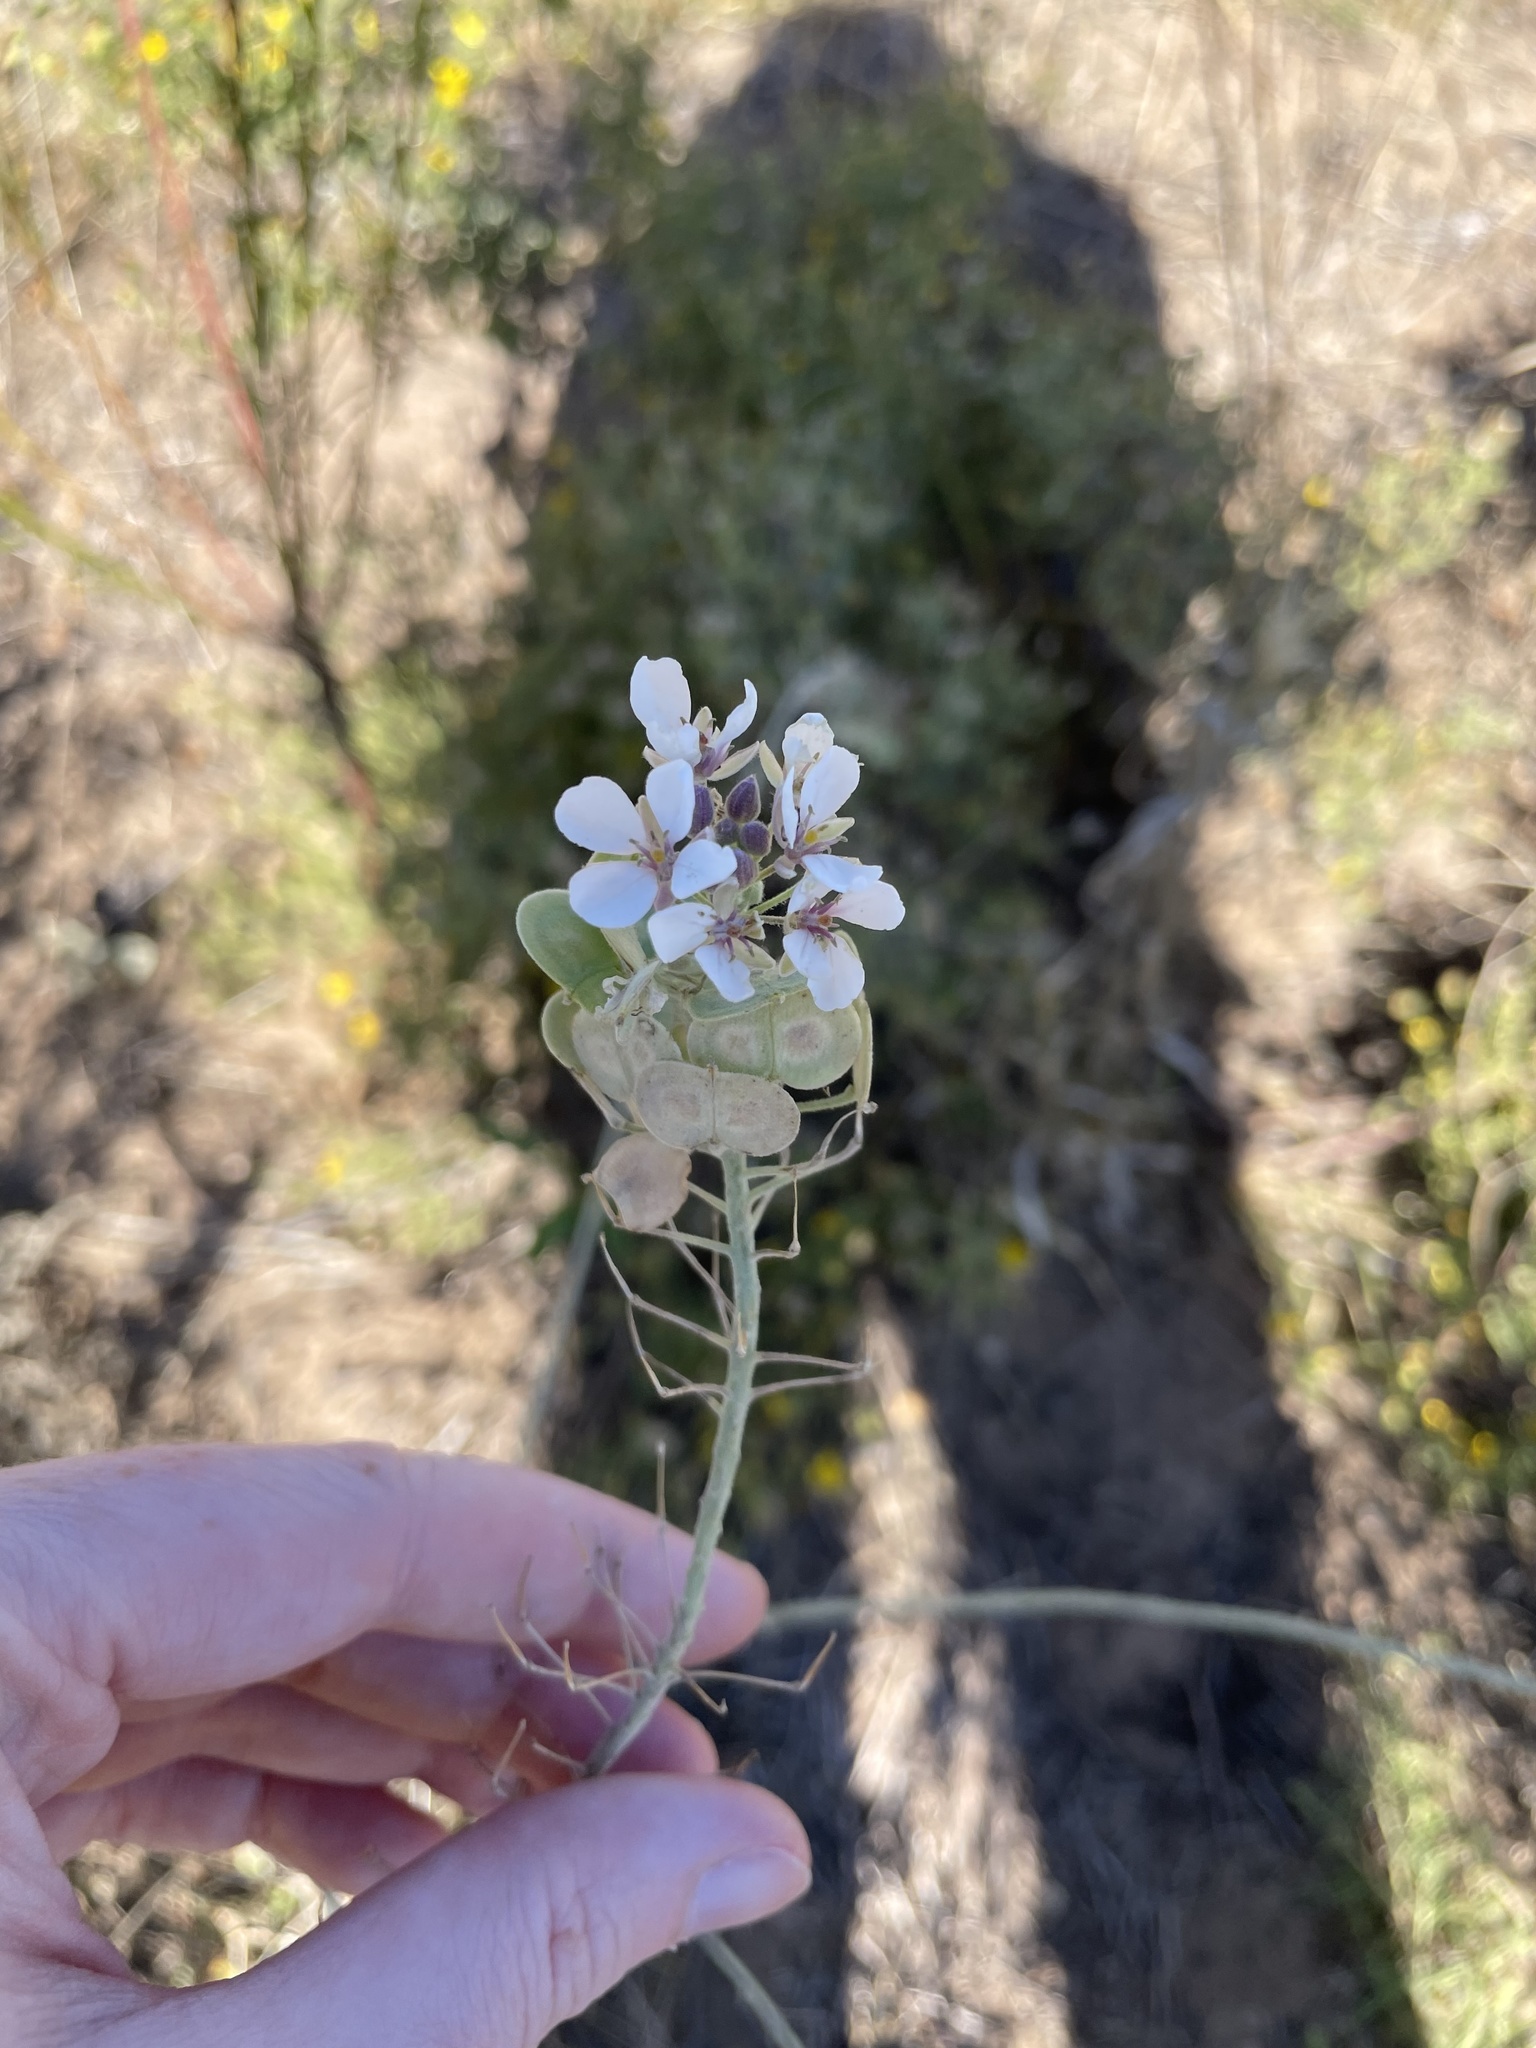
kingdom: Plantae
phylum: Tracheophyta
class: Magnoliopsida
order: Brassicales
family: Brassicaceae
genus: Dimorphocarpa
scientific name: Dimorphocarpa candicans
